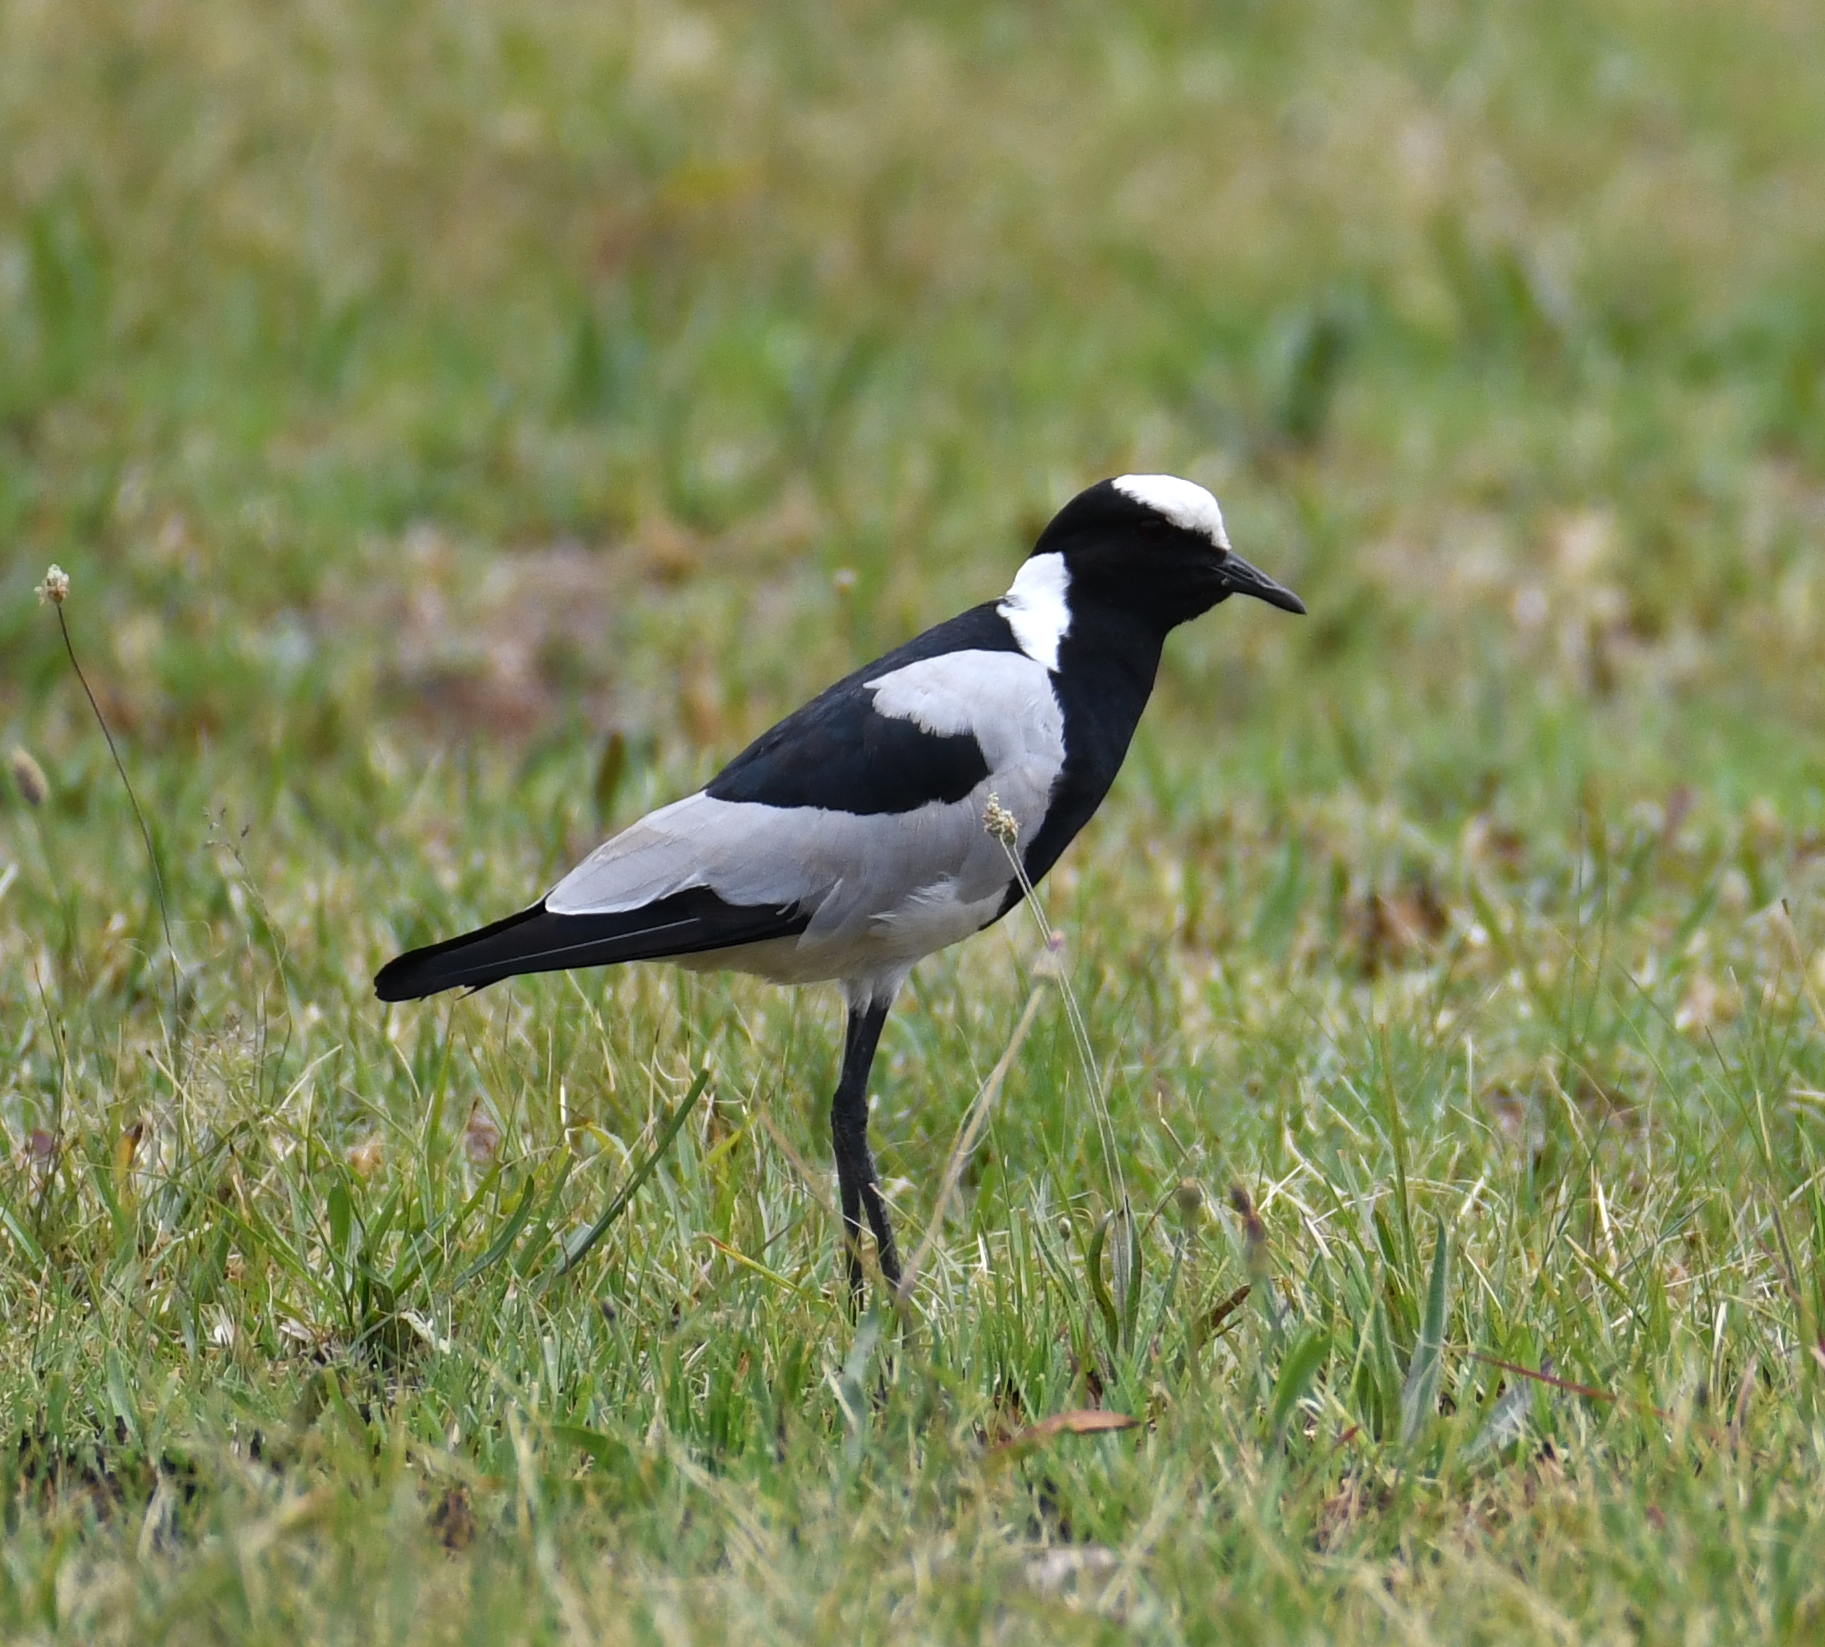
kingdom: Animalia
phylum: Chordata
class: Aves
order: Charadriiformes
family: Charadriidae
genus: Vanellus
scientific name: Vanellus armatus
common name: Blacksmith lapwing
